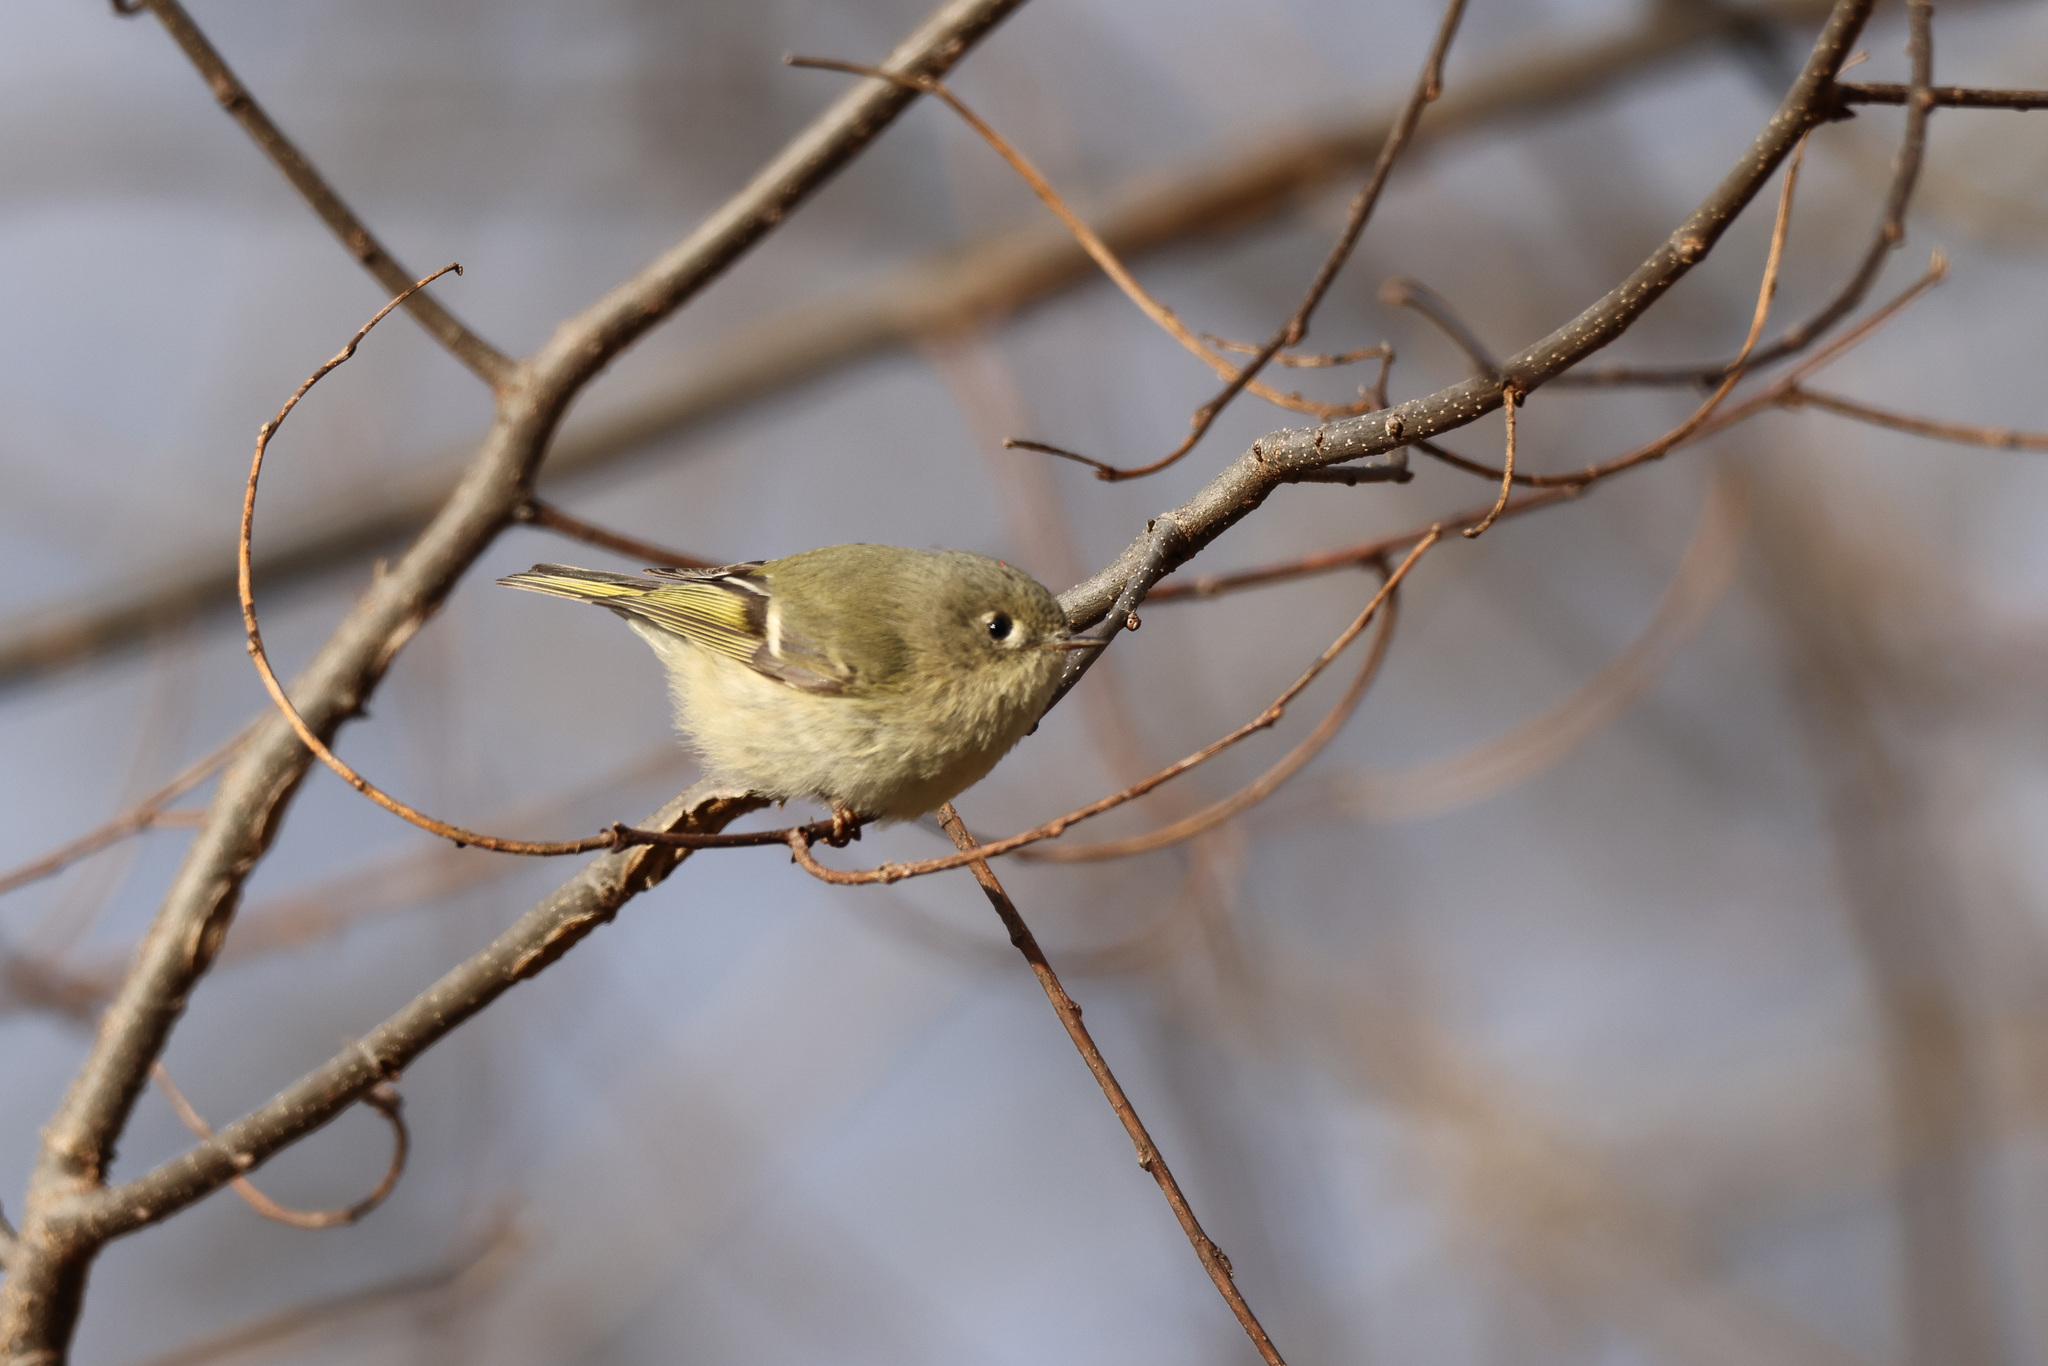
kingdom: Animalia
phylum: Chordata
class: Aves
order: Passeriformes
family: Regulidae
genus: Regulus
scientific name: Regulus calendula
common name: Ruby-crowned kinglet
